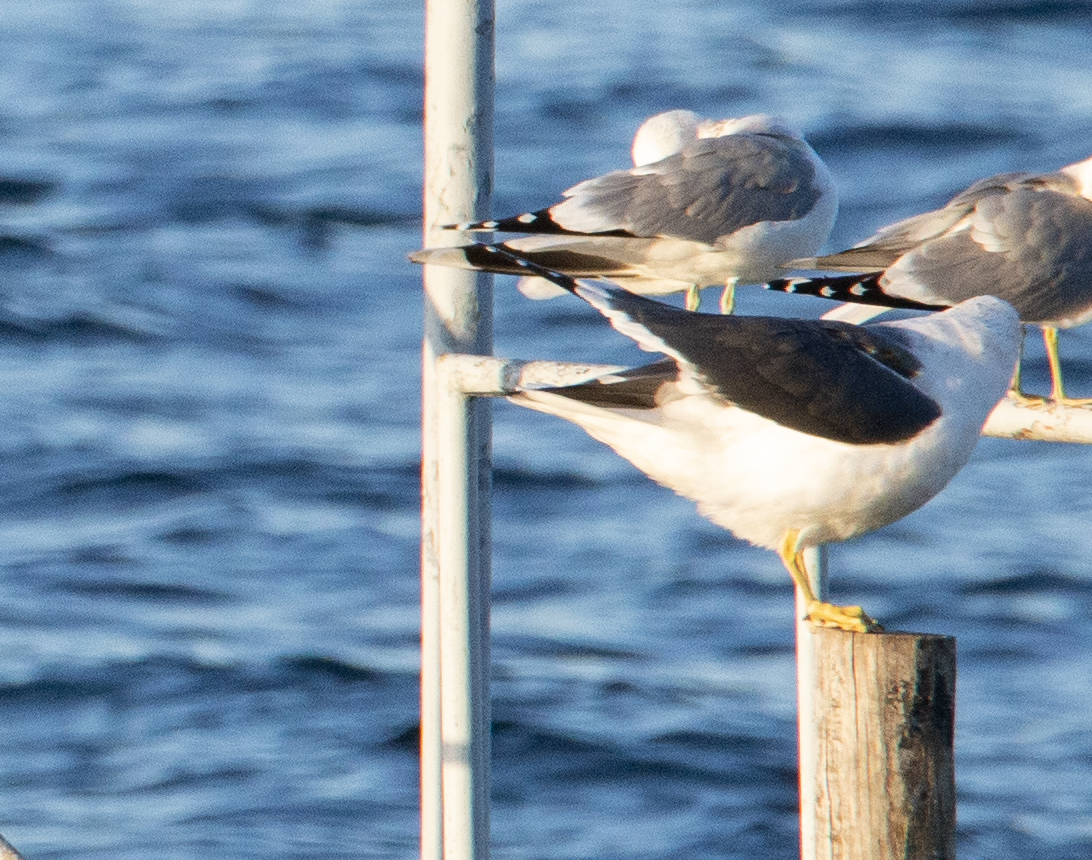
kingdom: Animalia
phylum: Chordata
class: Aves
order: Charadriiformes
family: Laridae
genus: Larus
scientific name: Larus fuscus
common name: Lesser black-backed gull
